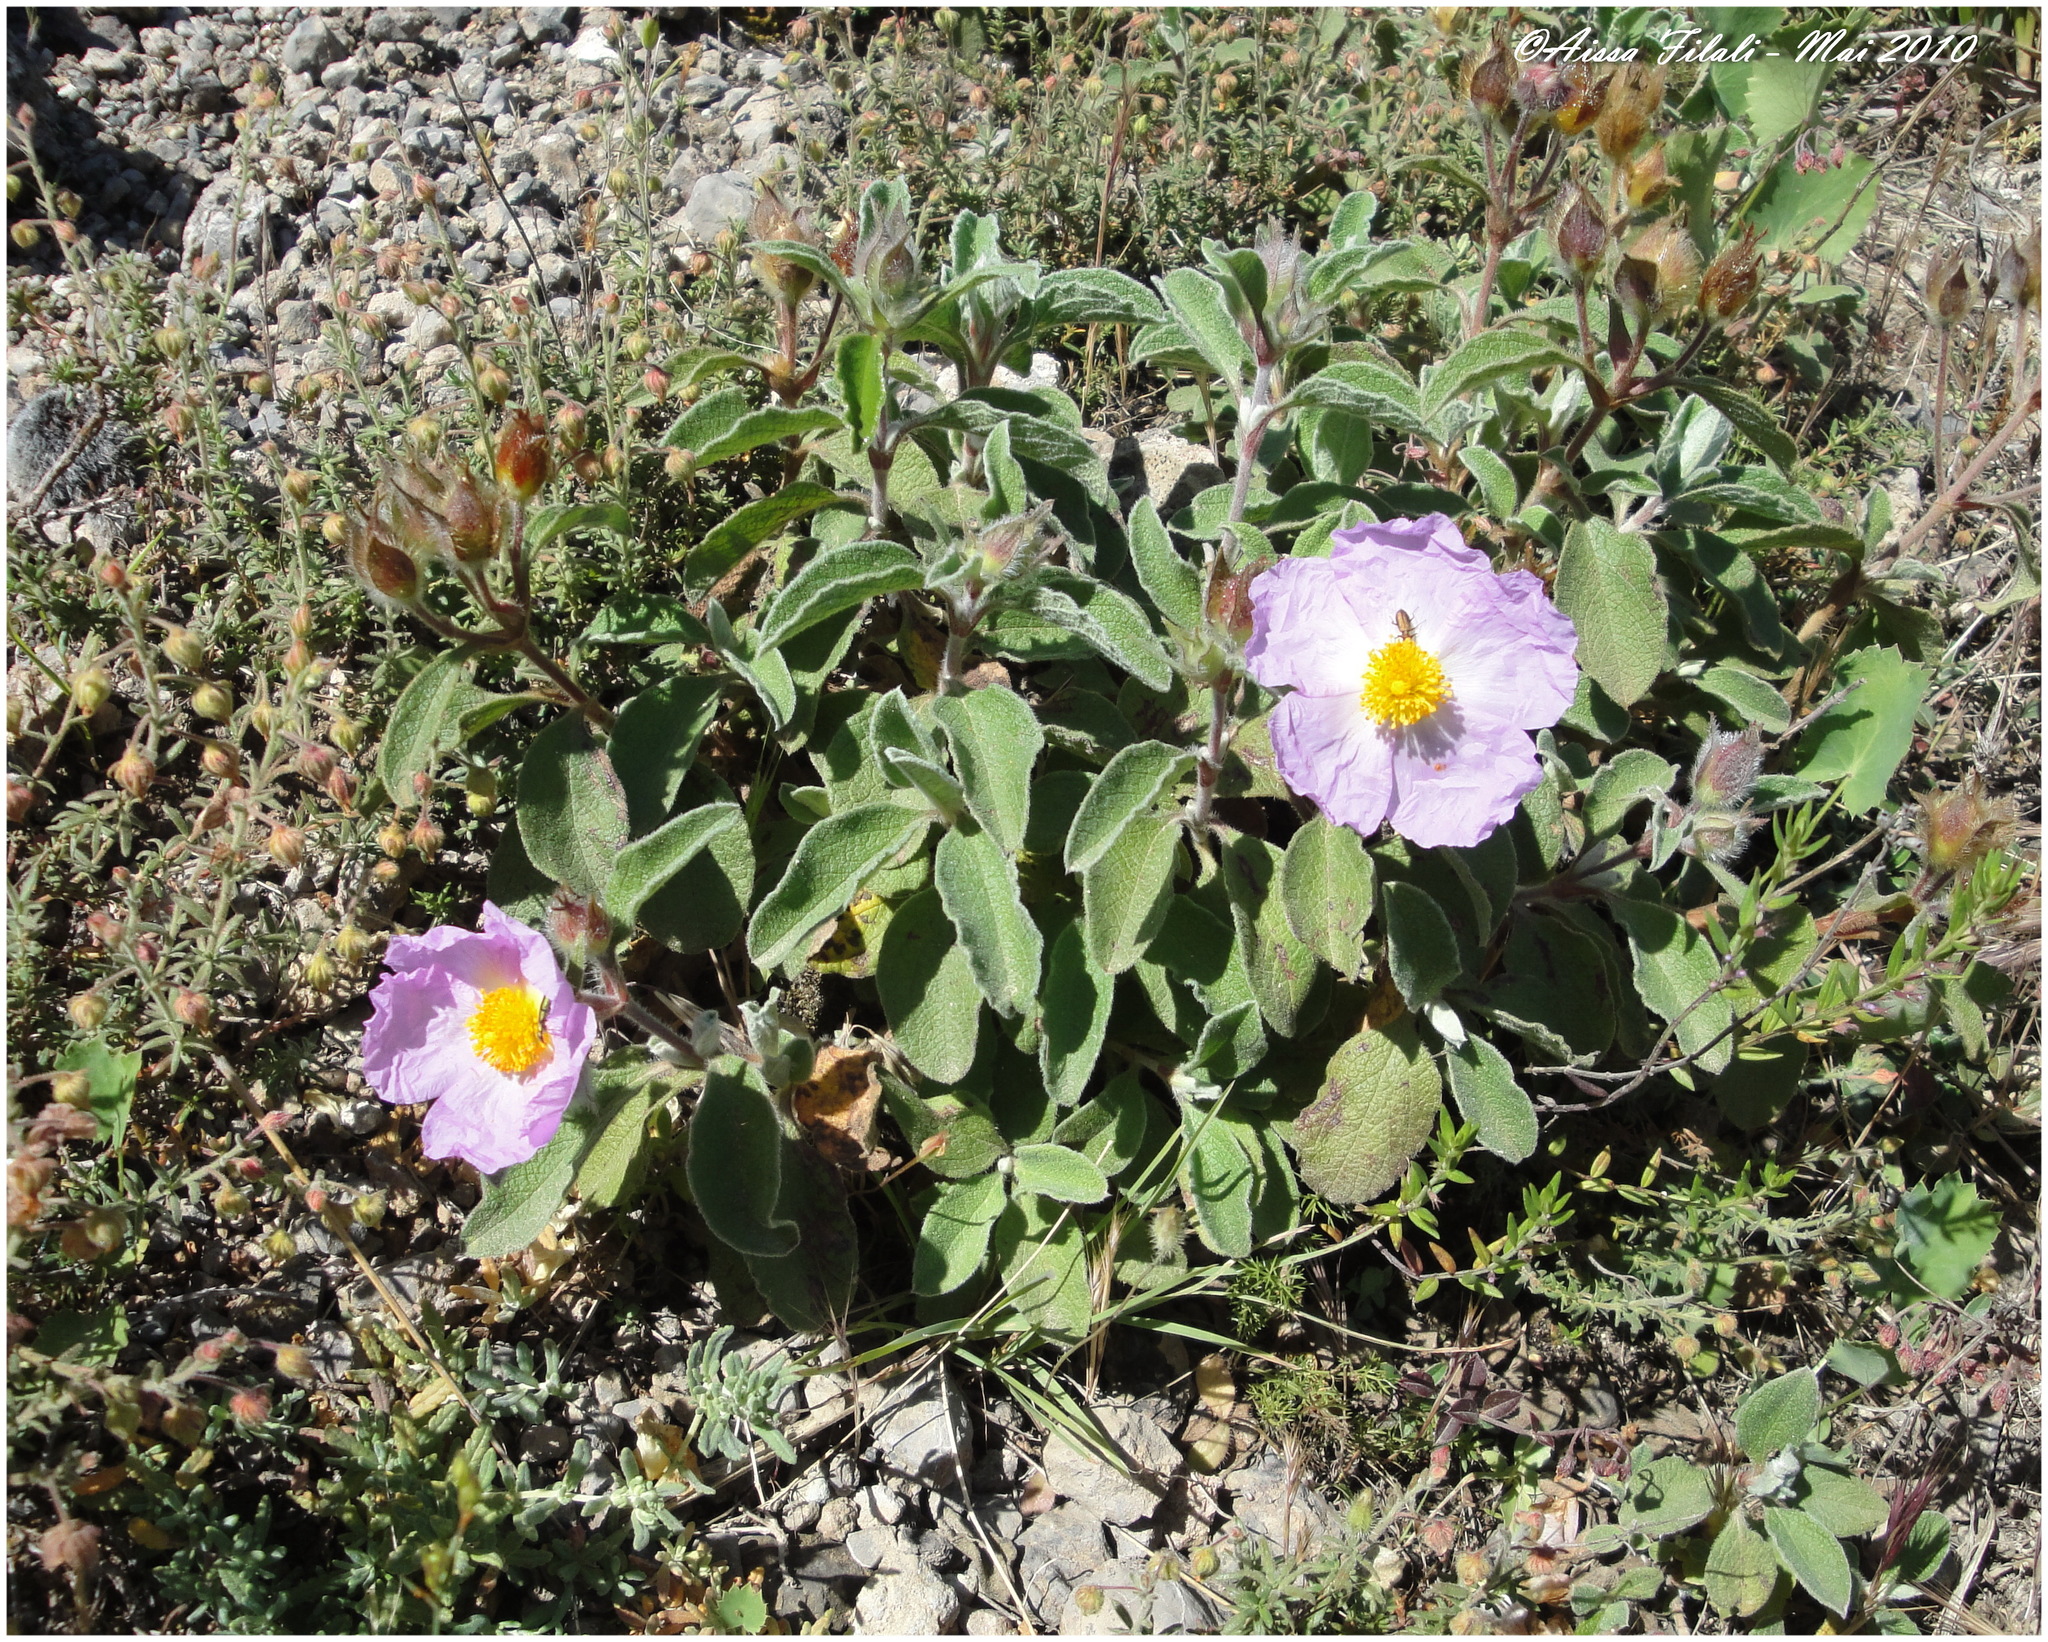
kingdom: Plantae
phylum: Tracheophyta
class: Magnoliopsida
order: Malvales
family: Cistaceae
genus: Cistus
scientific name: Cistus creticus
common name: Cretan rockrose
